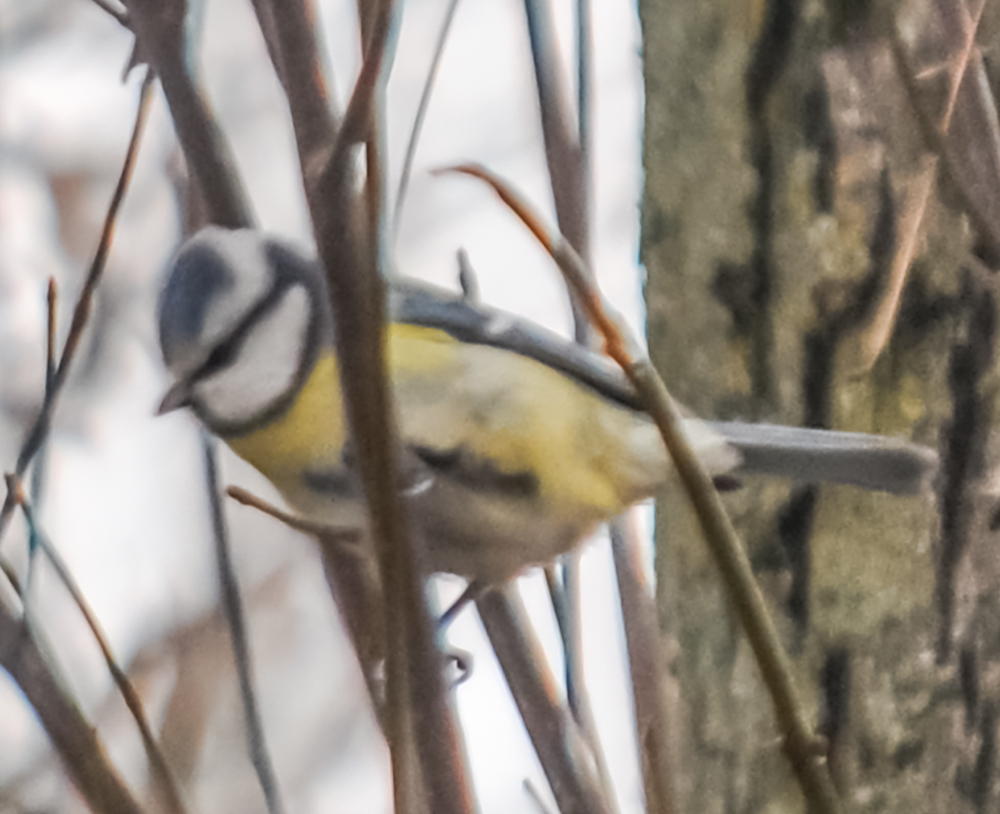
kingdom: Animalia
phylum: Chordata
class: Aves
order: Passeriformes
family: Paridae
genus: Cyanistes
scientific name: Cyanistes caeruleus
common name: Eurasian blue tit
